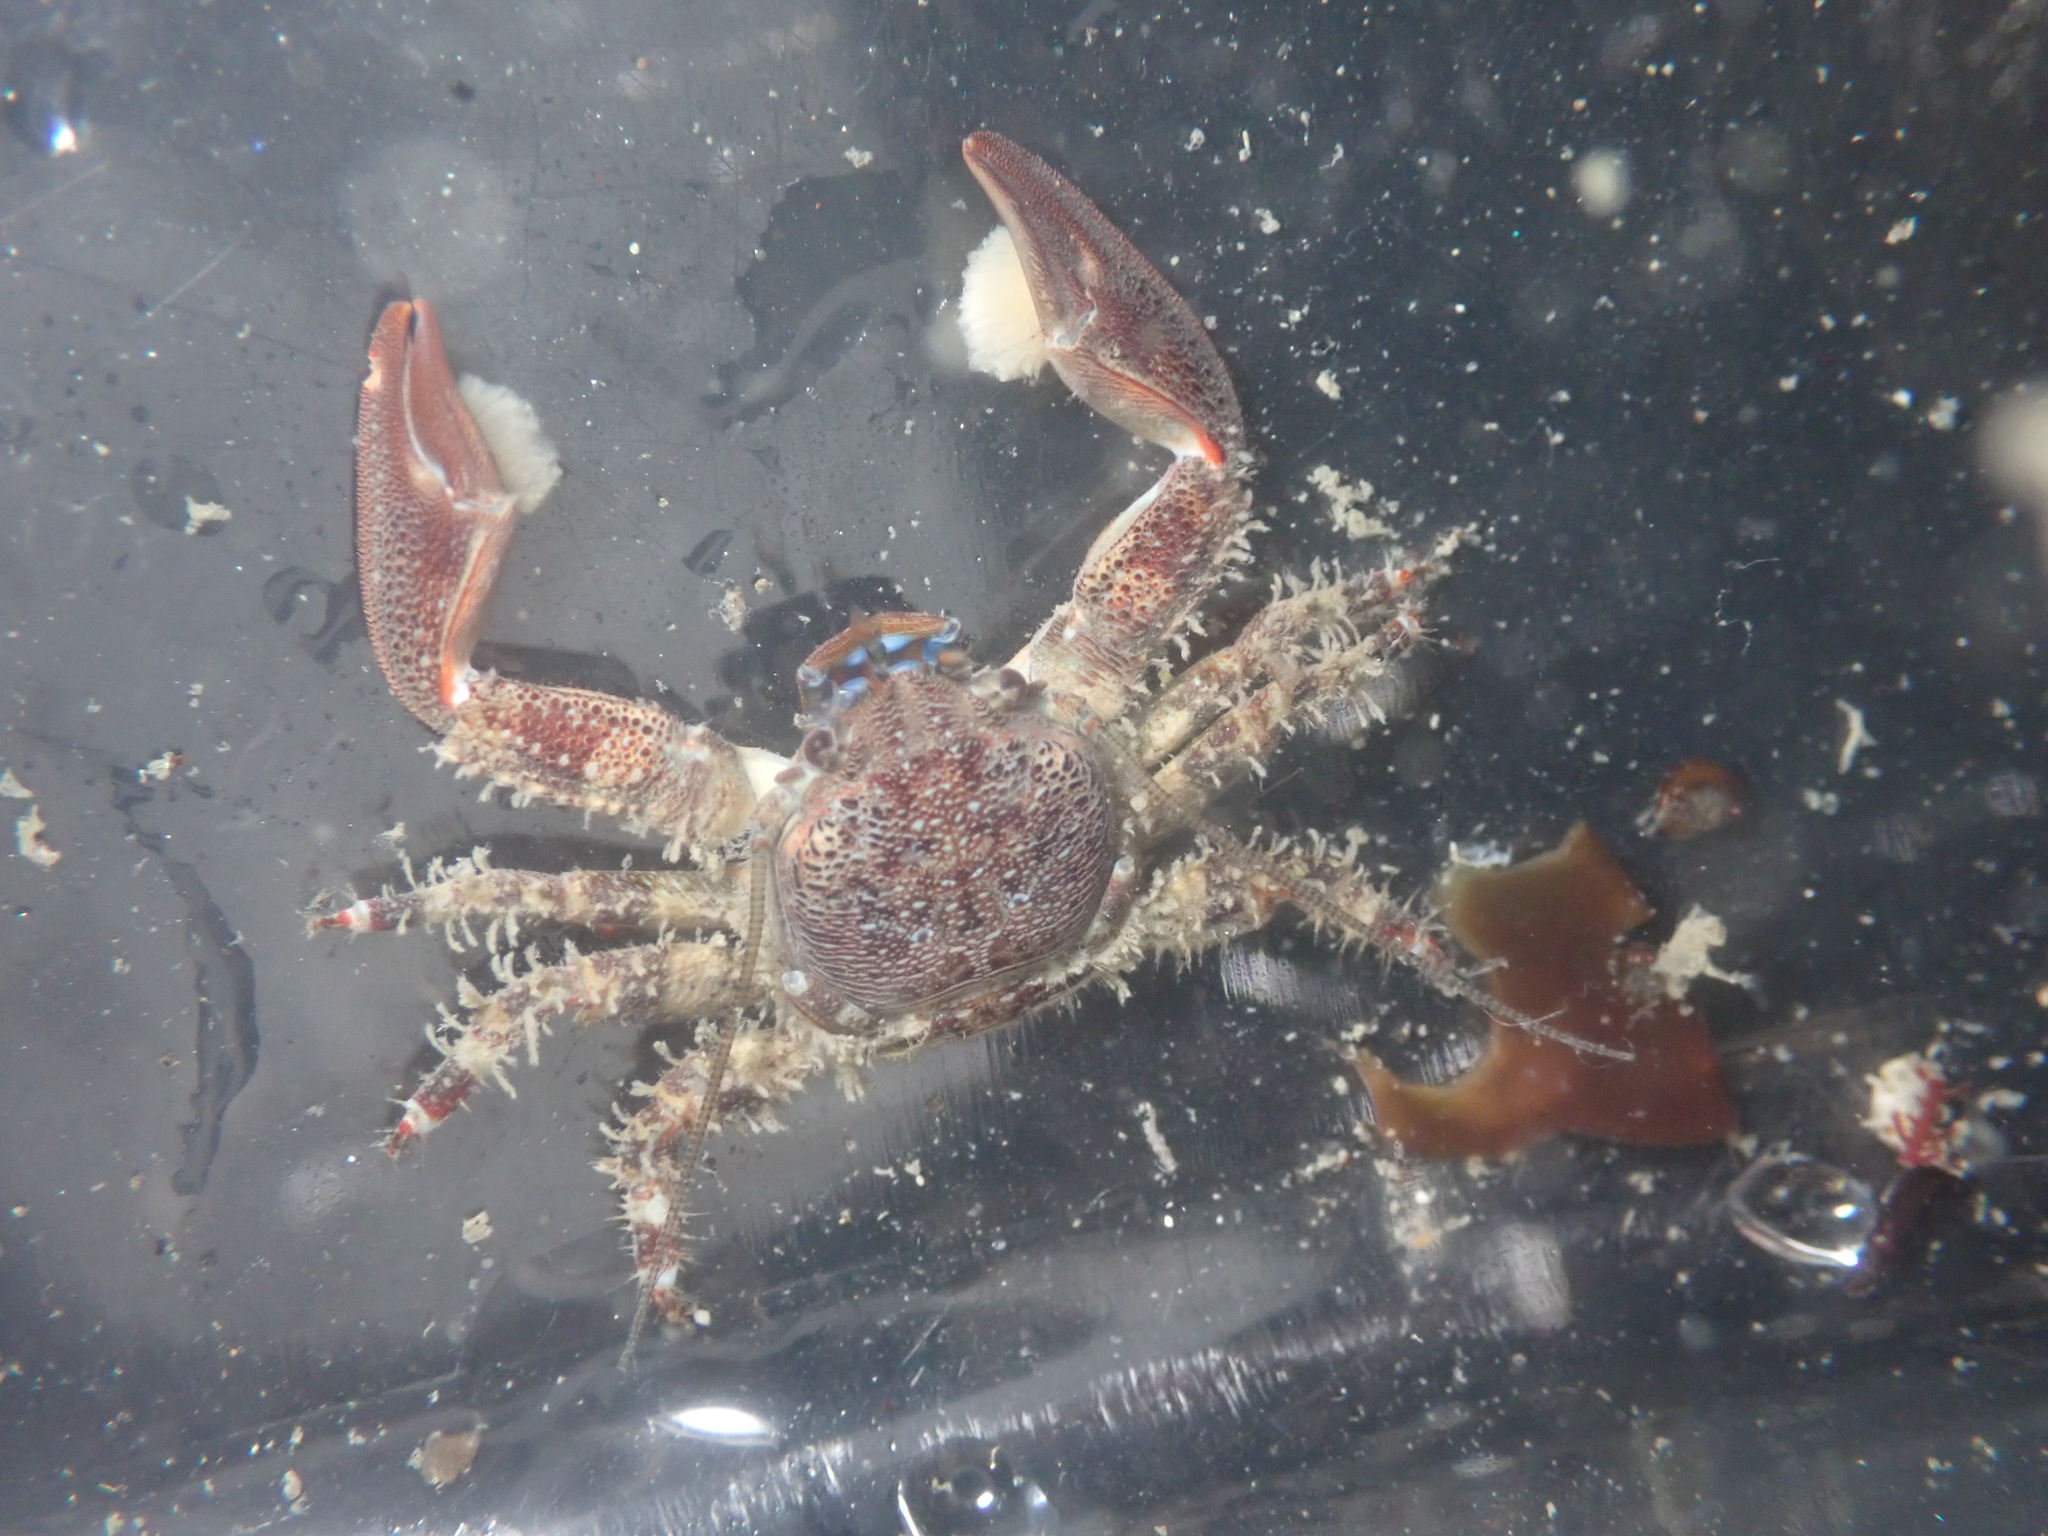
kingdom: Animalia
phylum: Arthropoda
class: Malacostraca
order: Decapoda
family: Porcellanidae
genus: Petrolisthes
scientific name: Petrolisthes eriomerus
